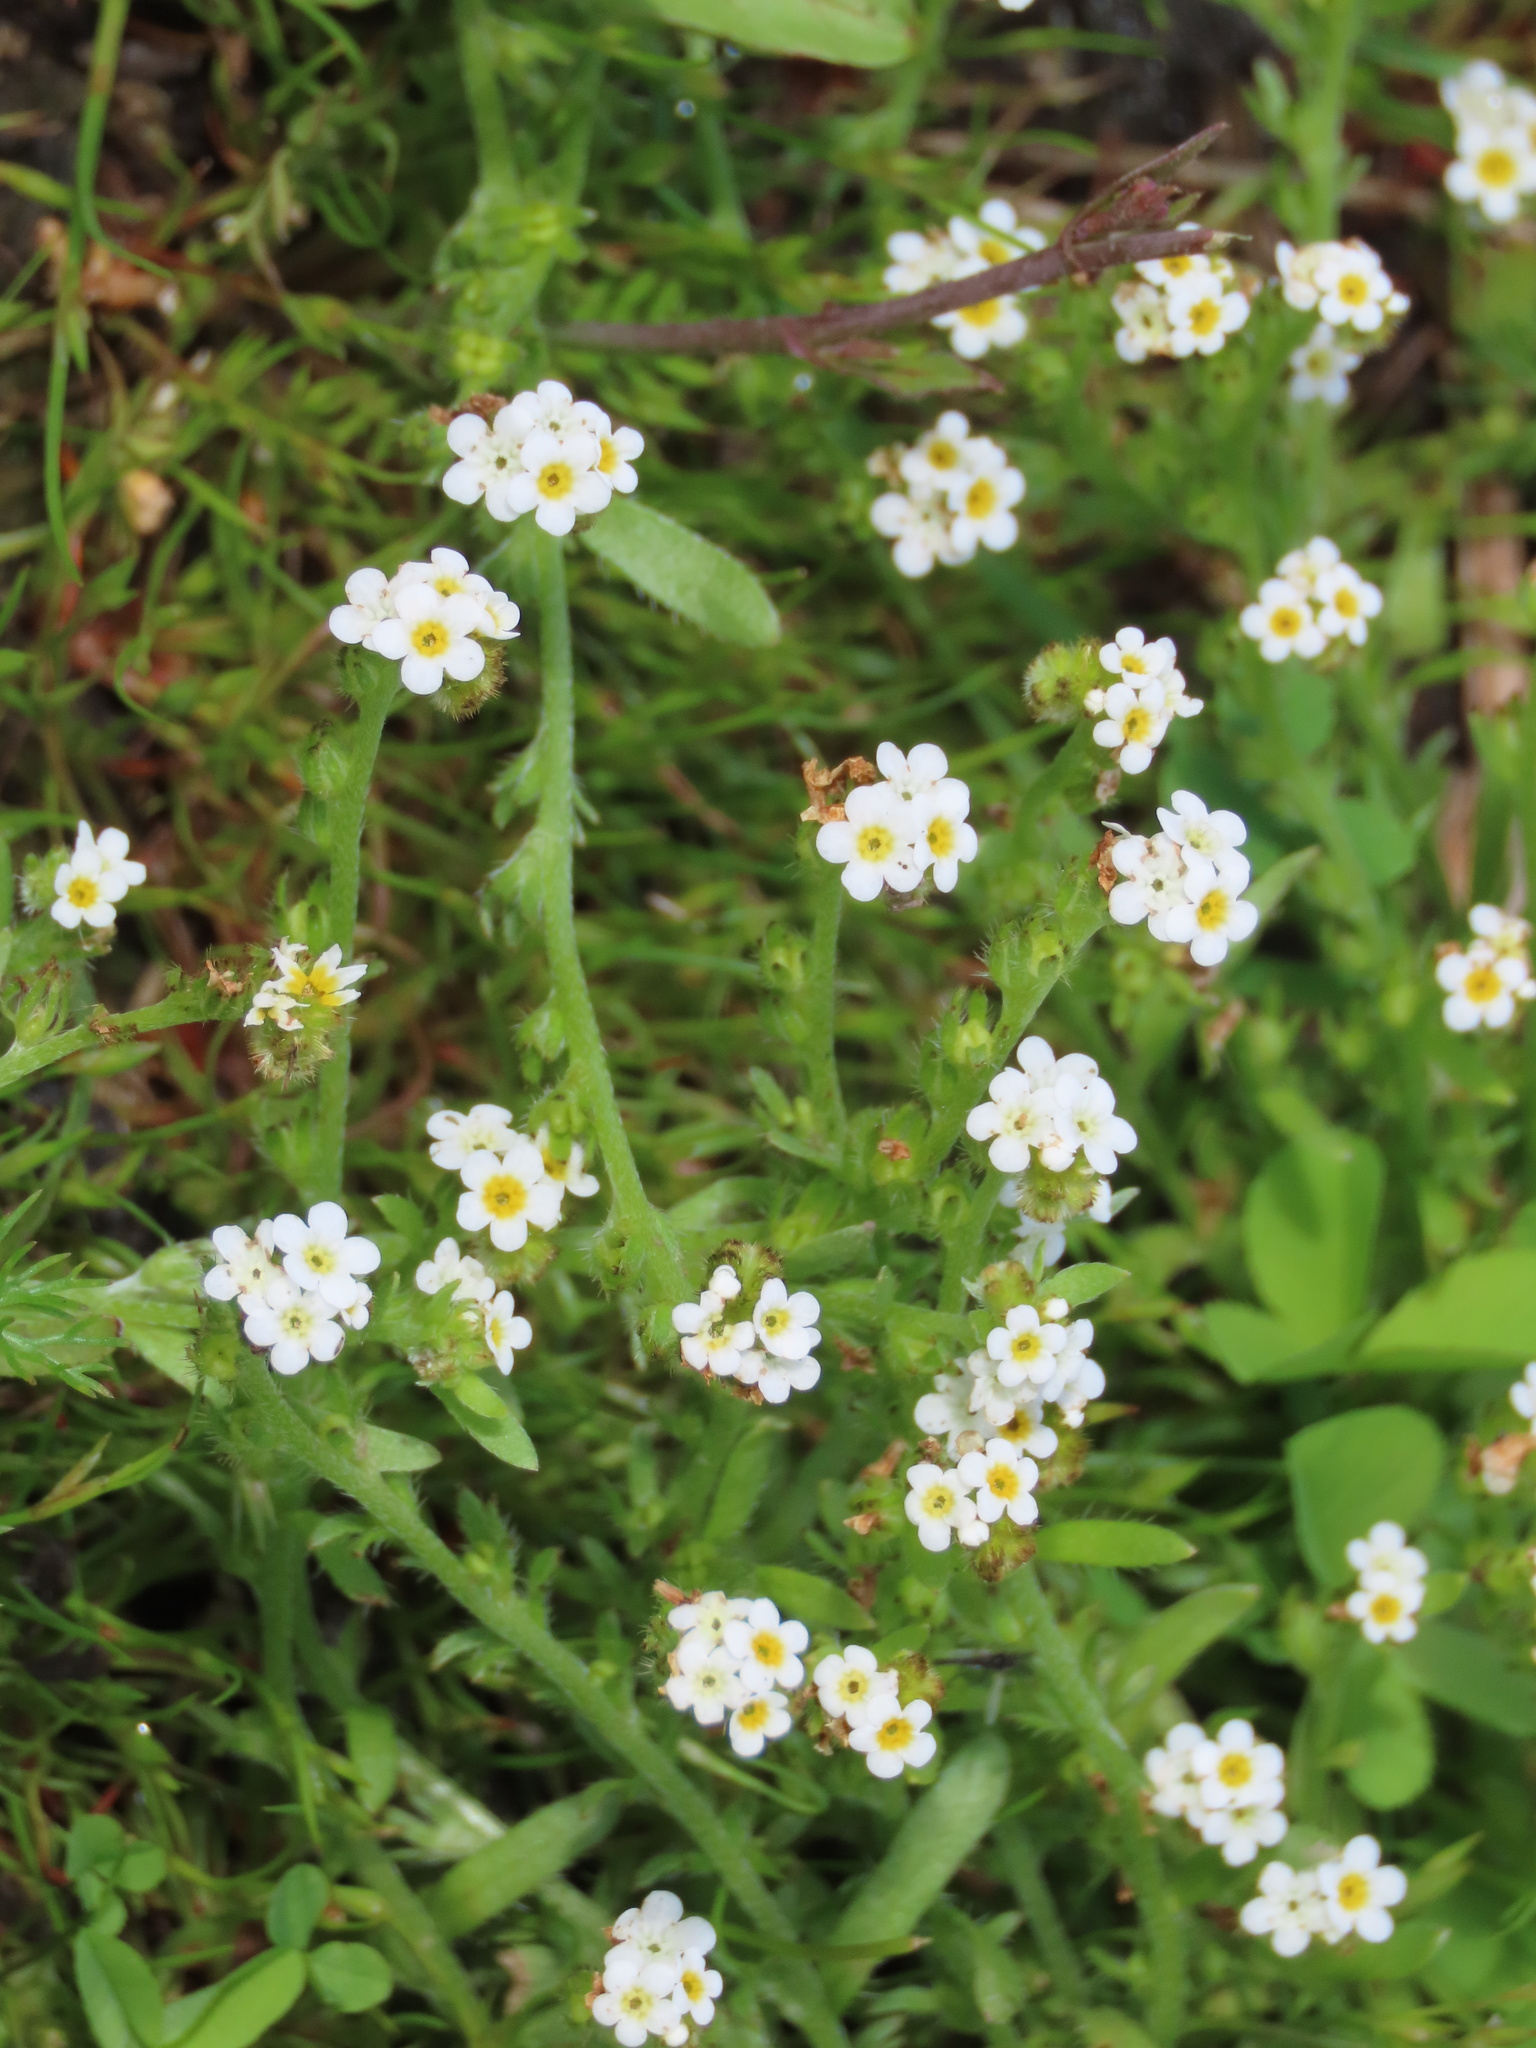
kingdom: Plantae
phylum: Tracheophyta
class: Magnoliopsida
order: Boraginales
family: Boraginaceae
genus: Plagiobothrys
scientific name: Plagiobothrys scouleri
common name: White forget-me-not
